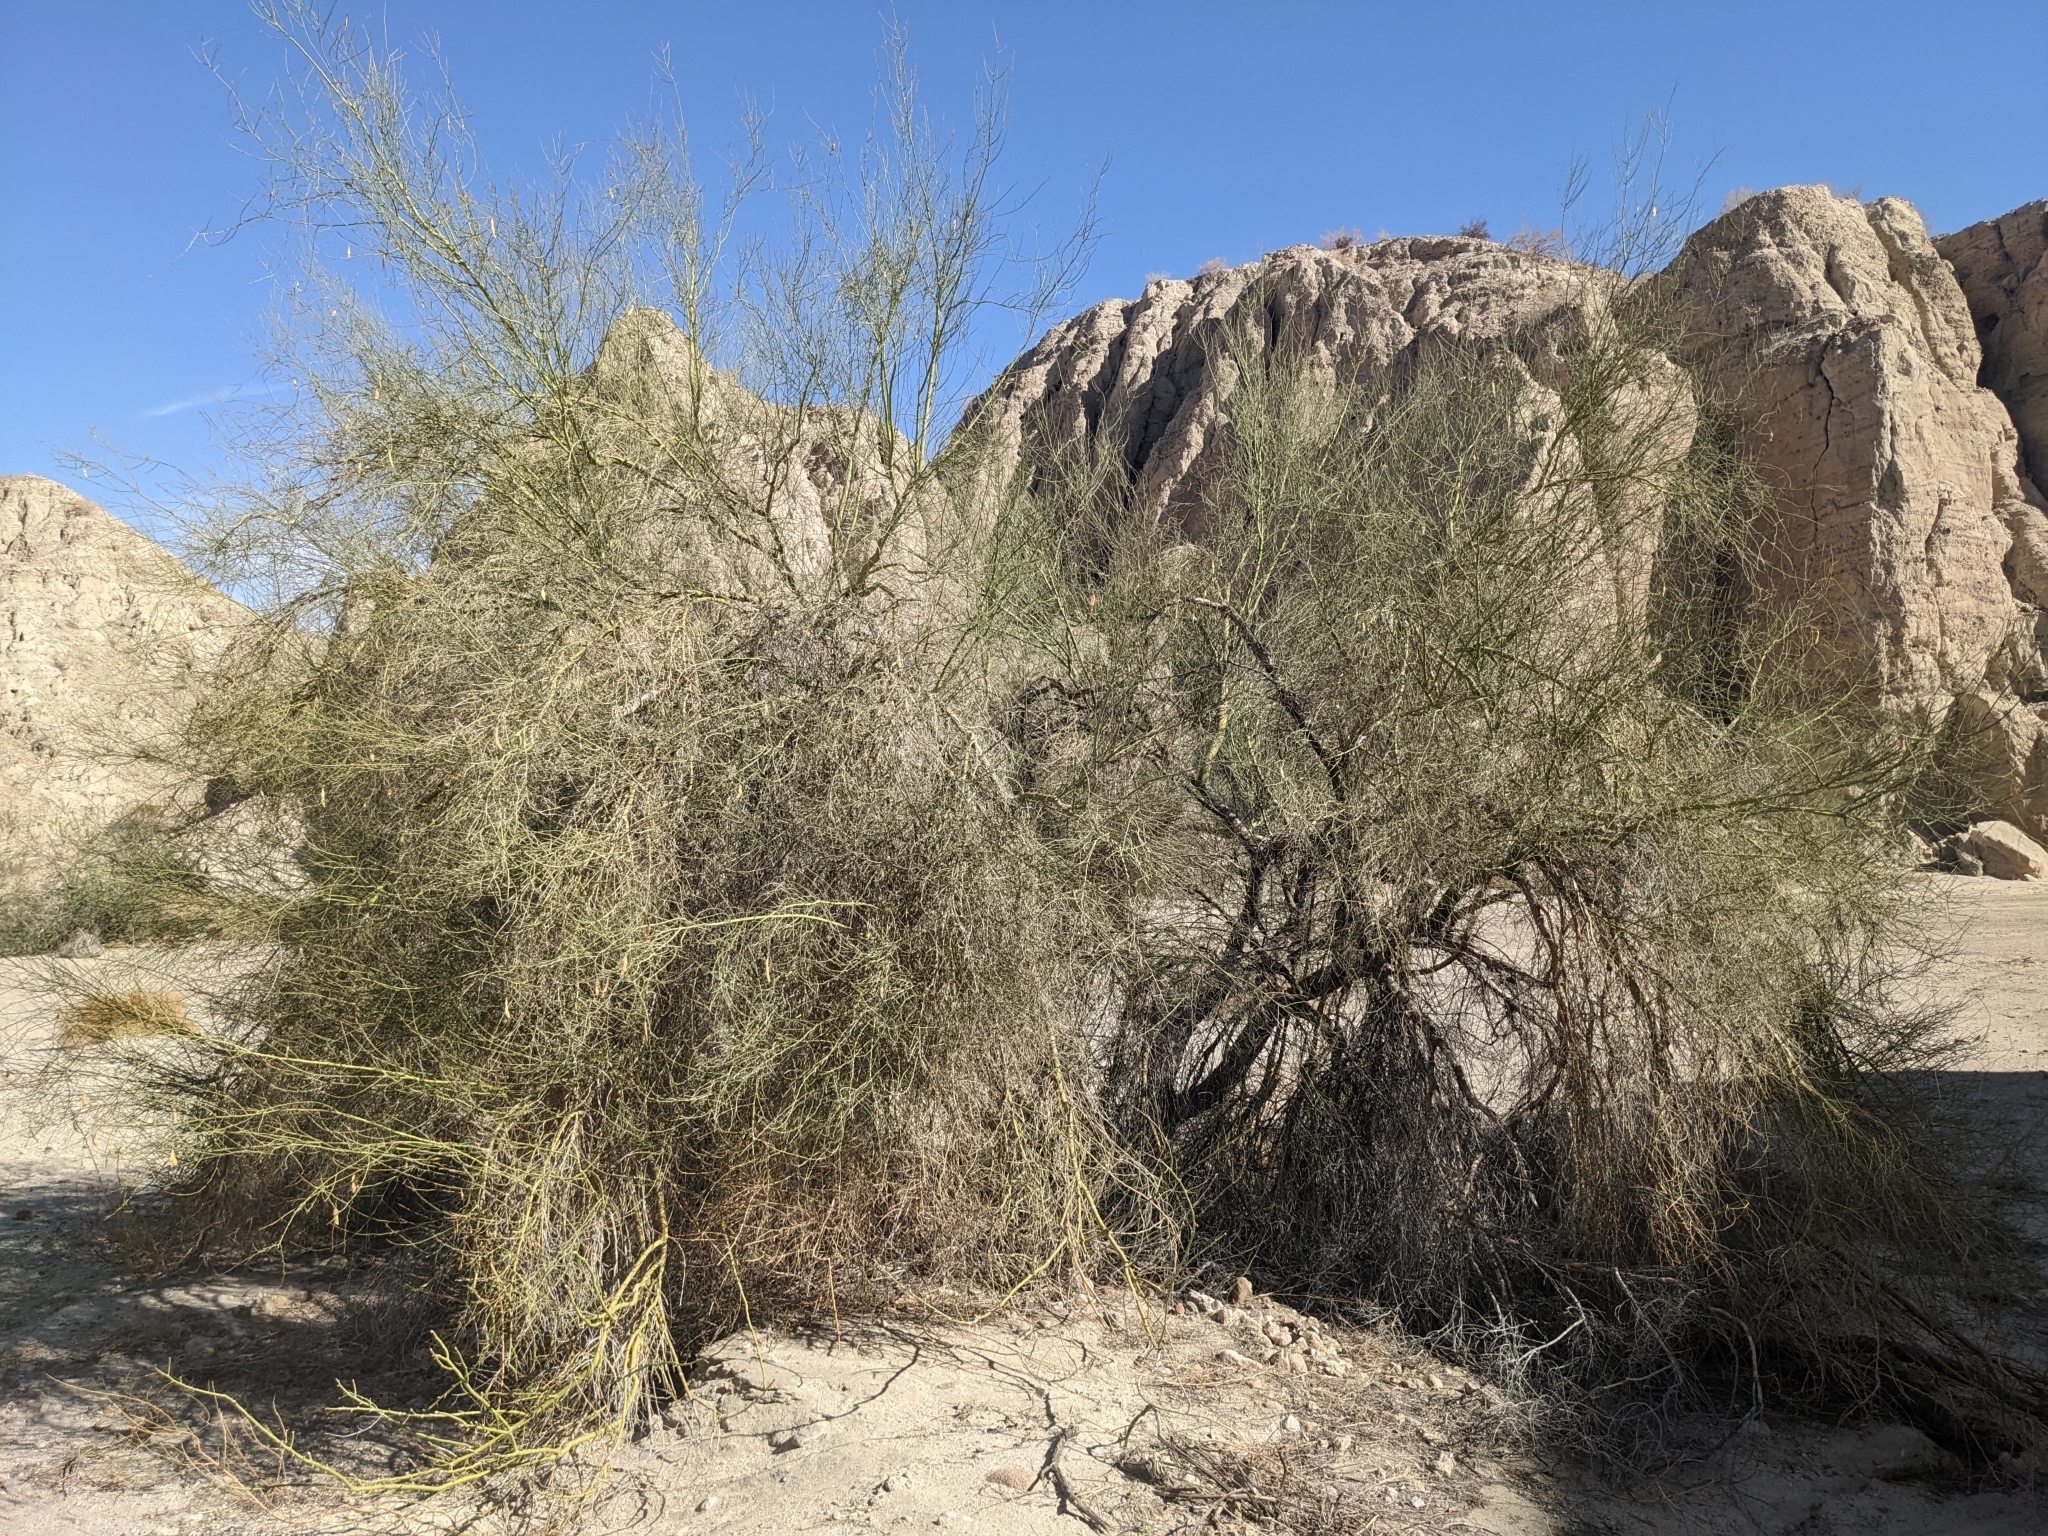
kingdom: Plantae
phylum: Tracheophyta
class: Magnoliopsida
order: Fabales
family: Fabaceae
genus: Parkinsonia
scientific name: Parkinsonia florida
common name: Blue paloverde
